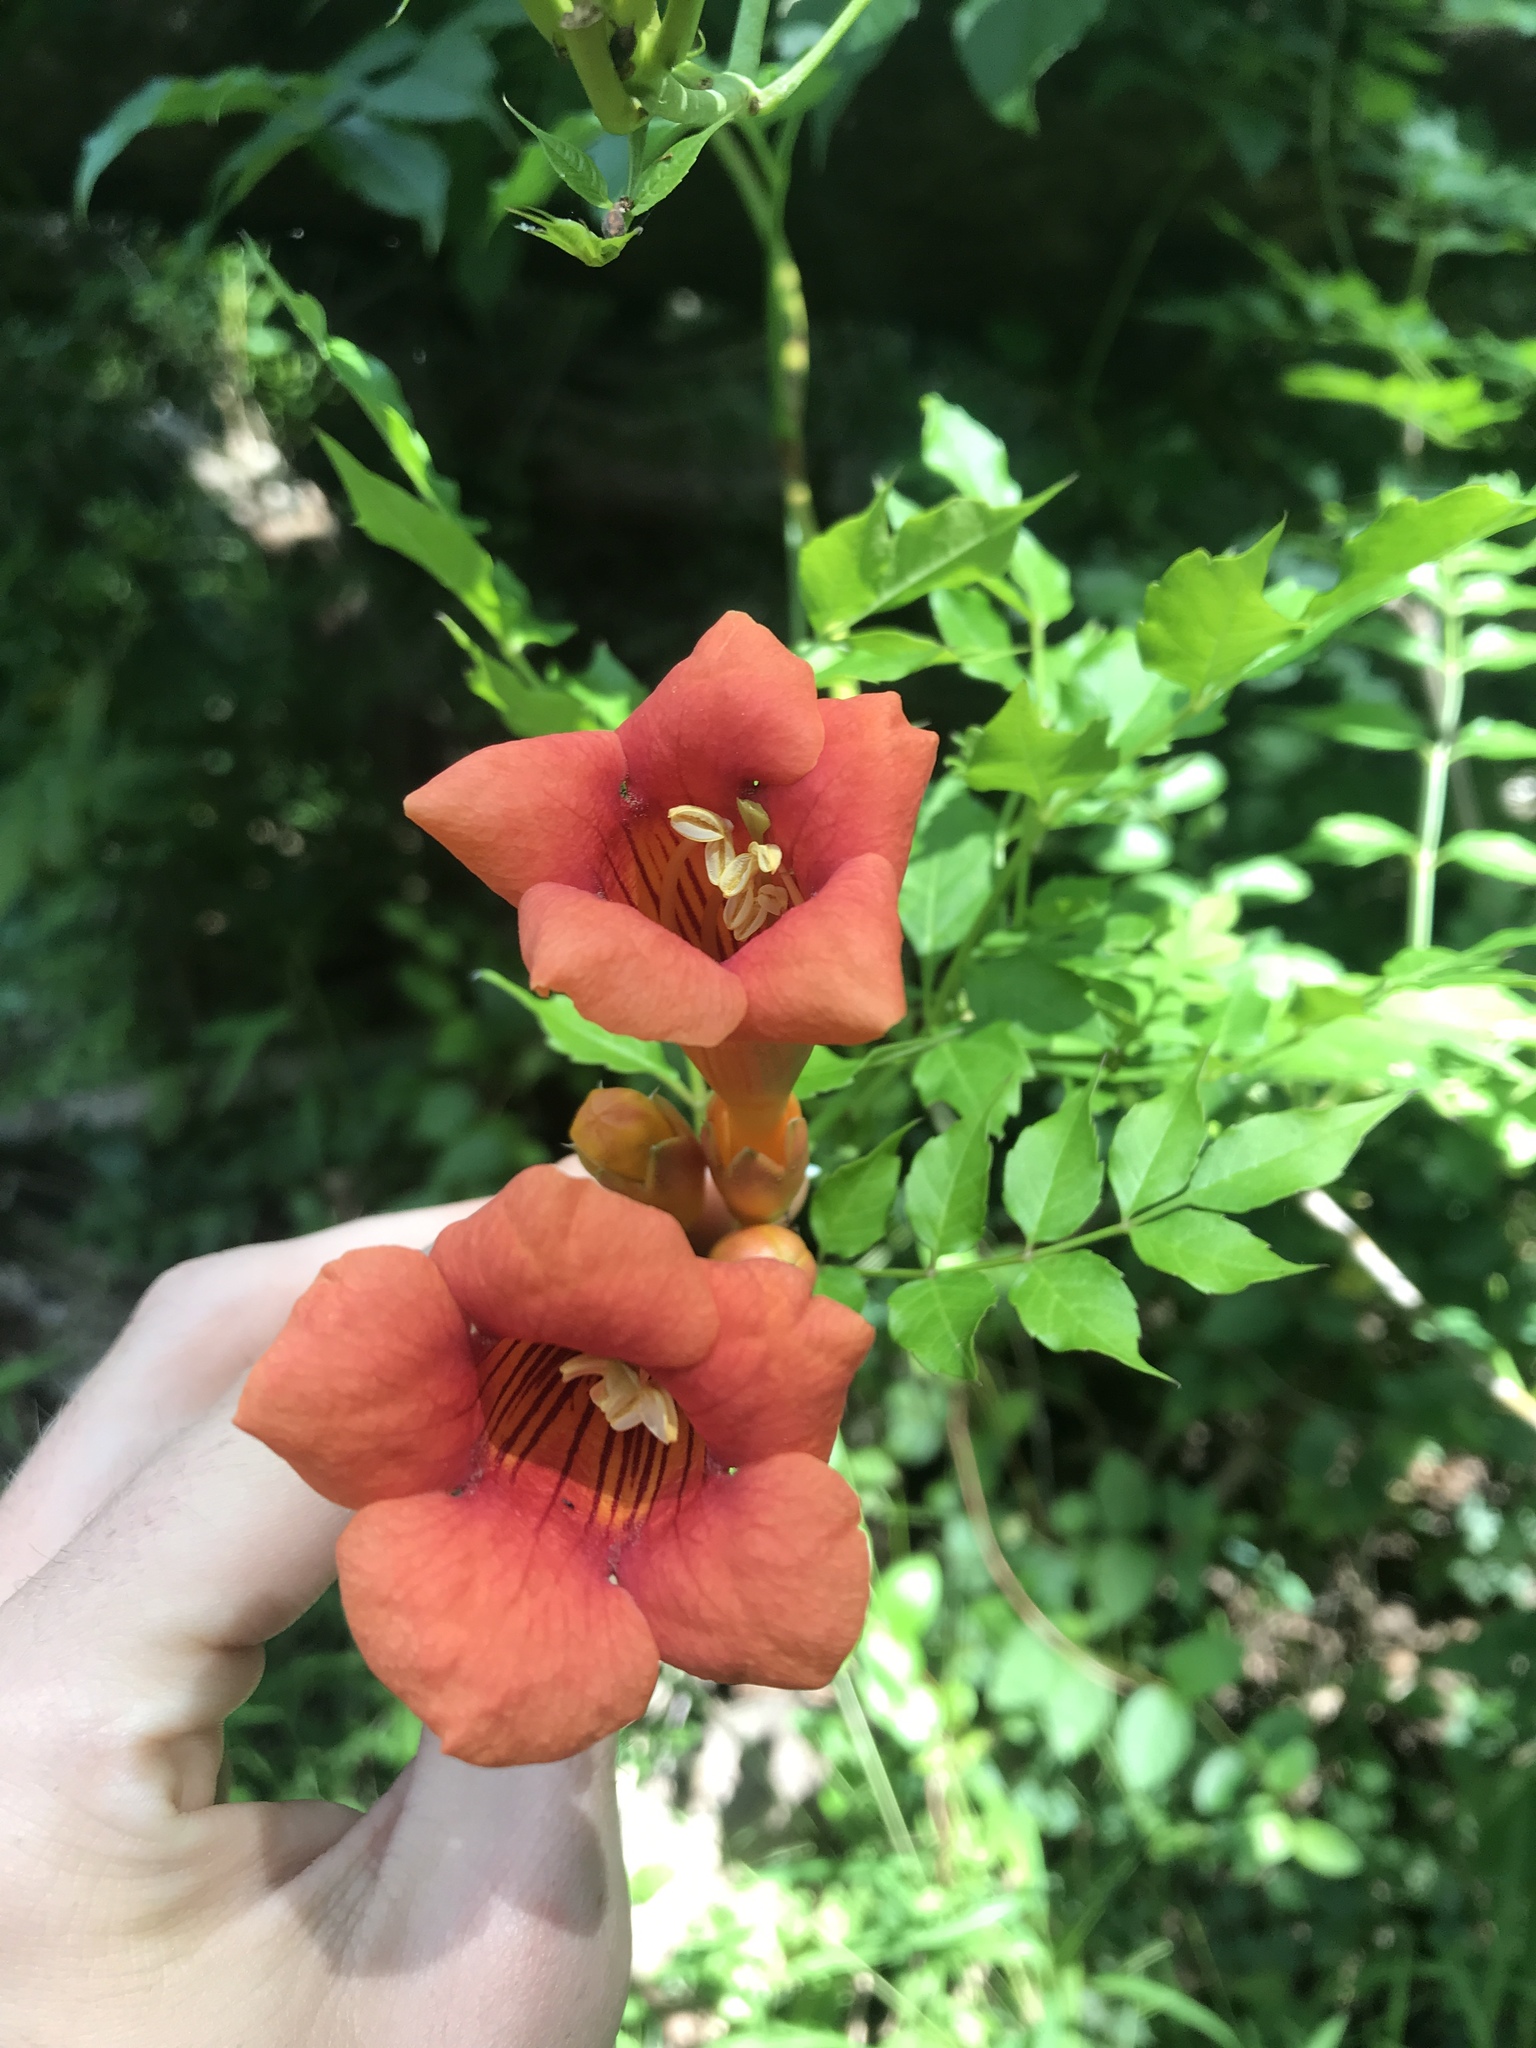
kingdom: Plantae
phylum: Tracheophyta
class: Magnoliopsida
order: Lamiales
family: Bignoniaceae
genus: Campsis
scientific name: Campsis radicans
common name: Trumpet-creeper
